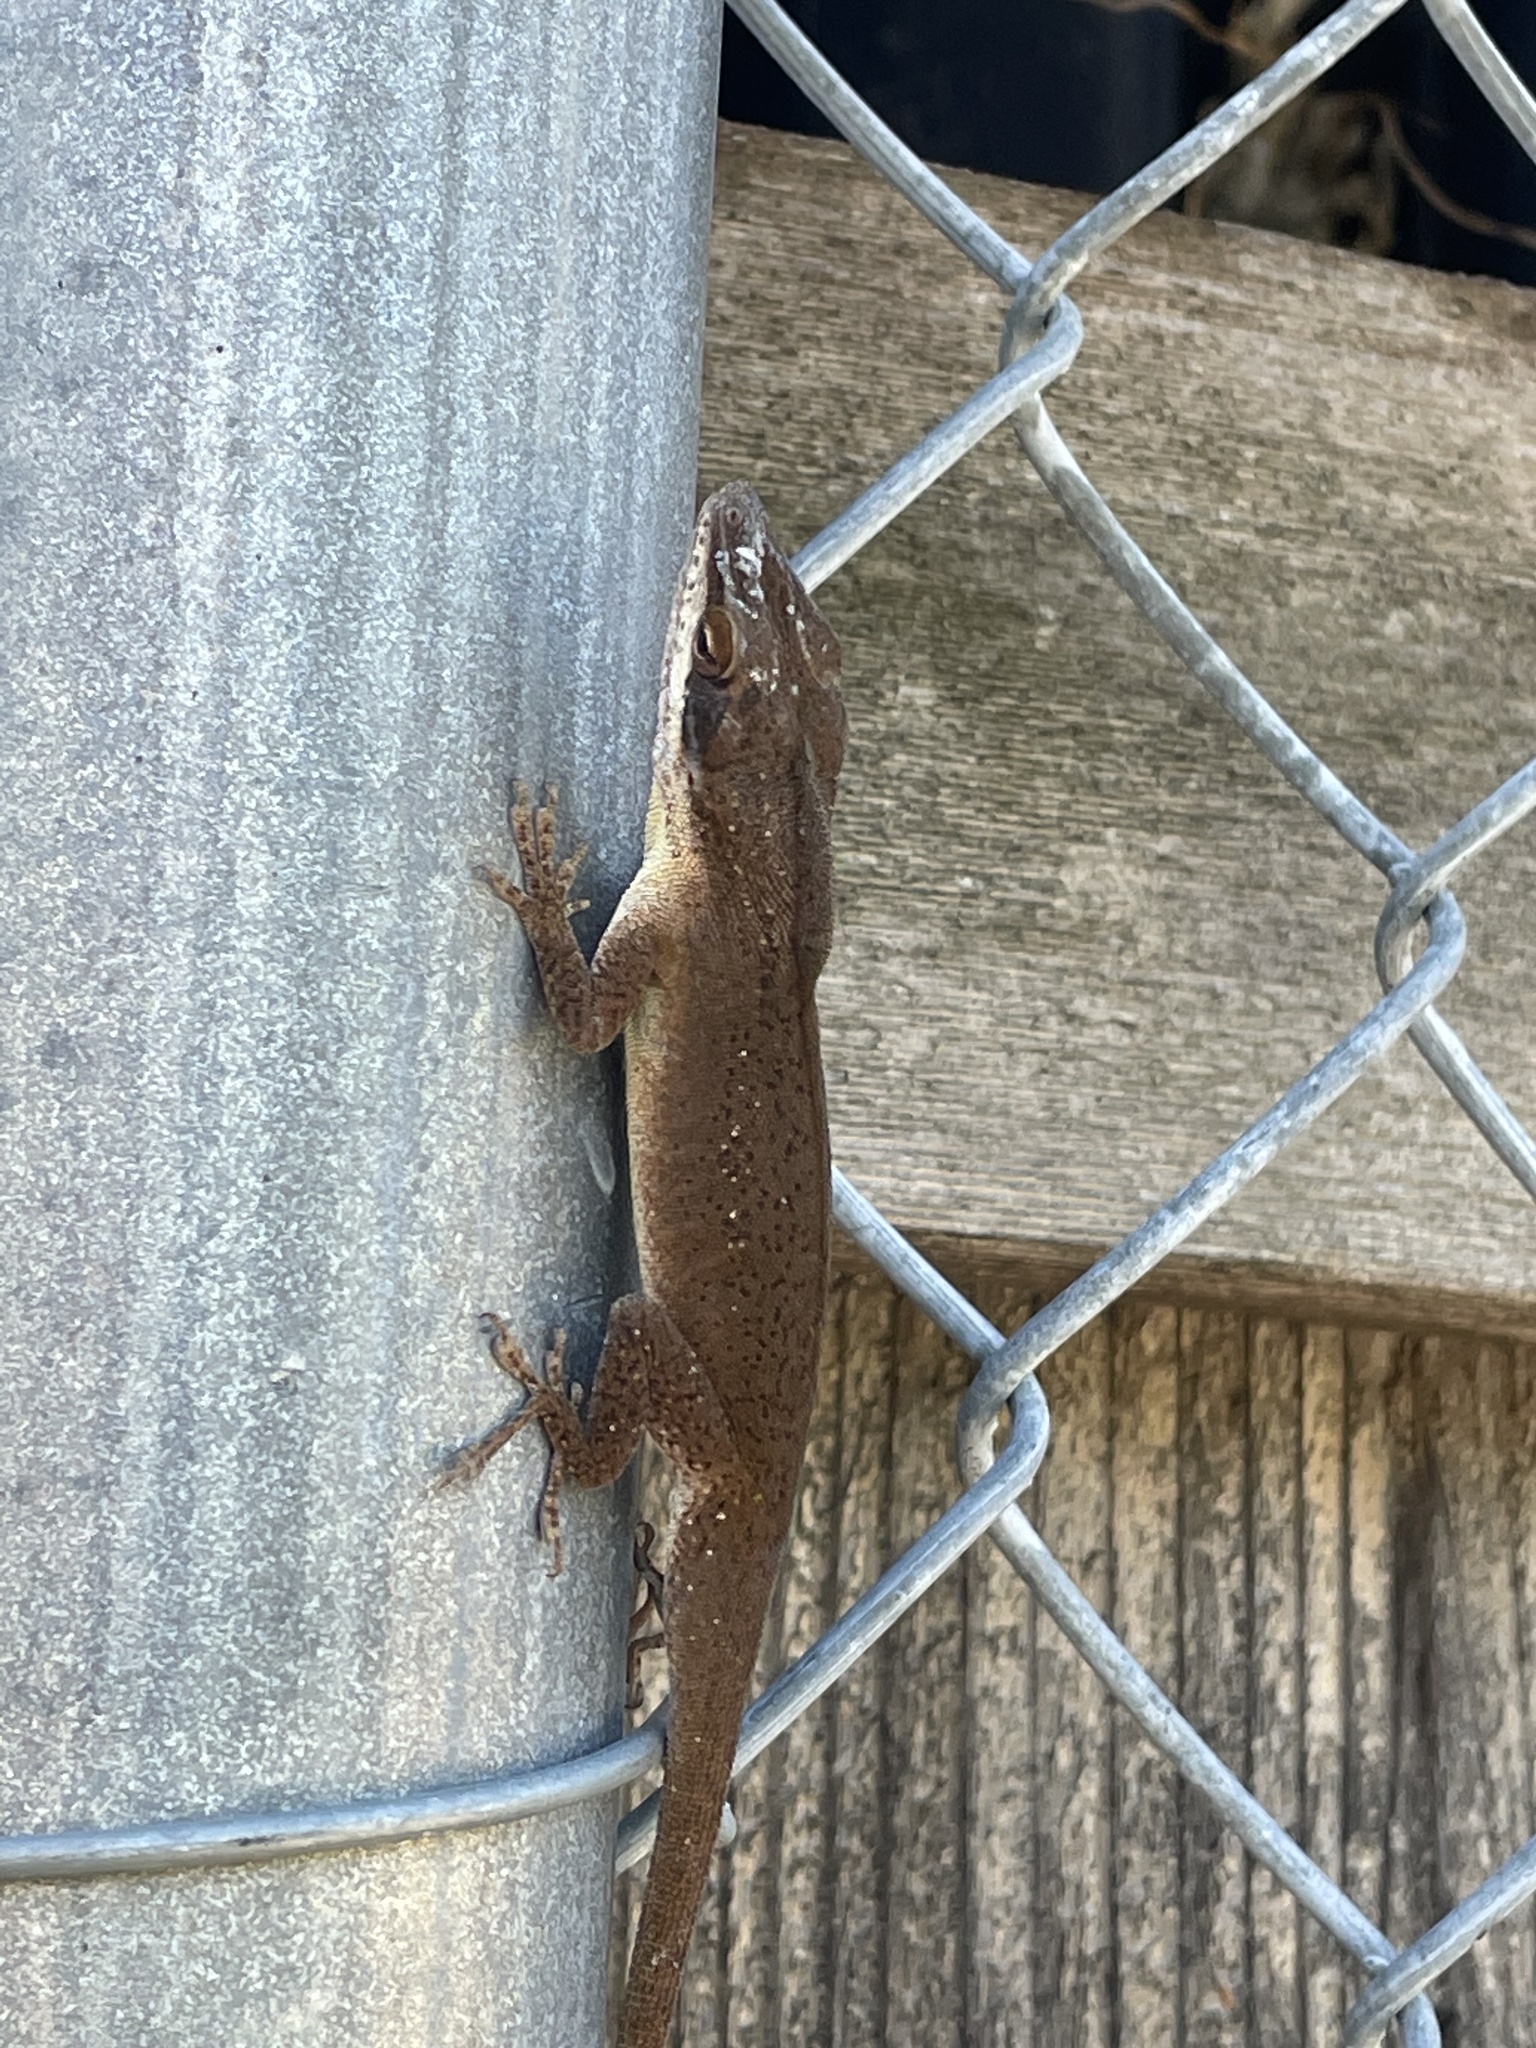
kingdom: Animalia
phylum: Chordata
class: Squamata
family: Dactyloidae
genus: Anolis
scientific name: Anolis carolinensis
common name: Green anole
